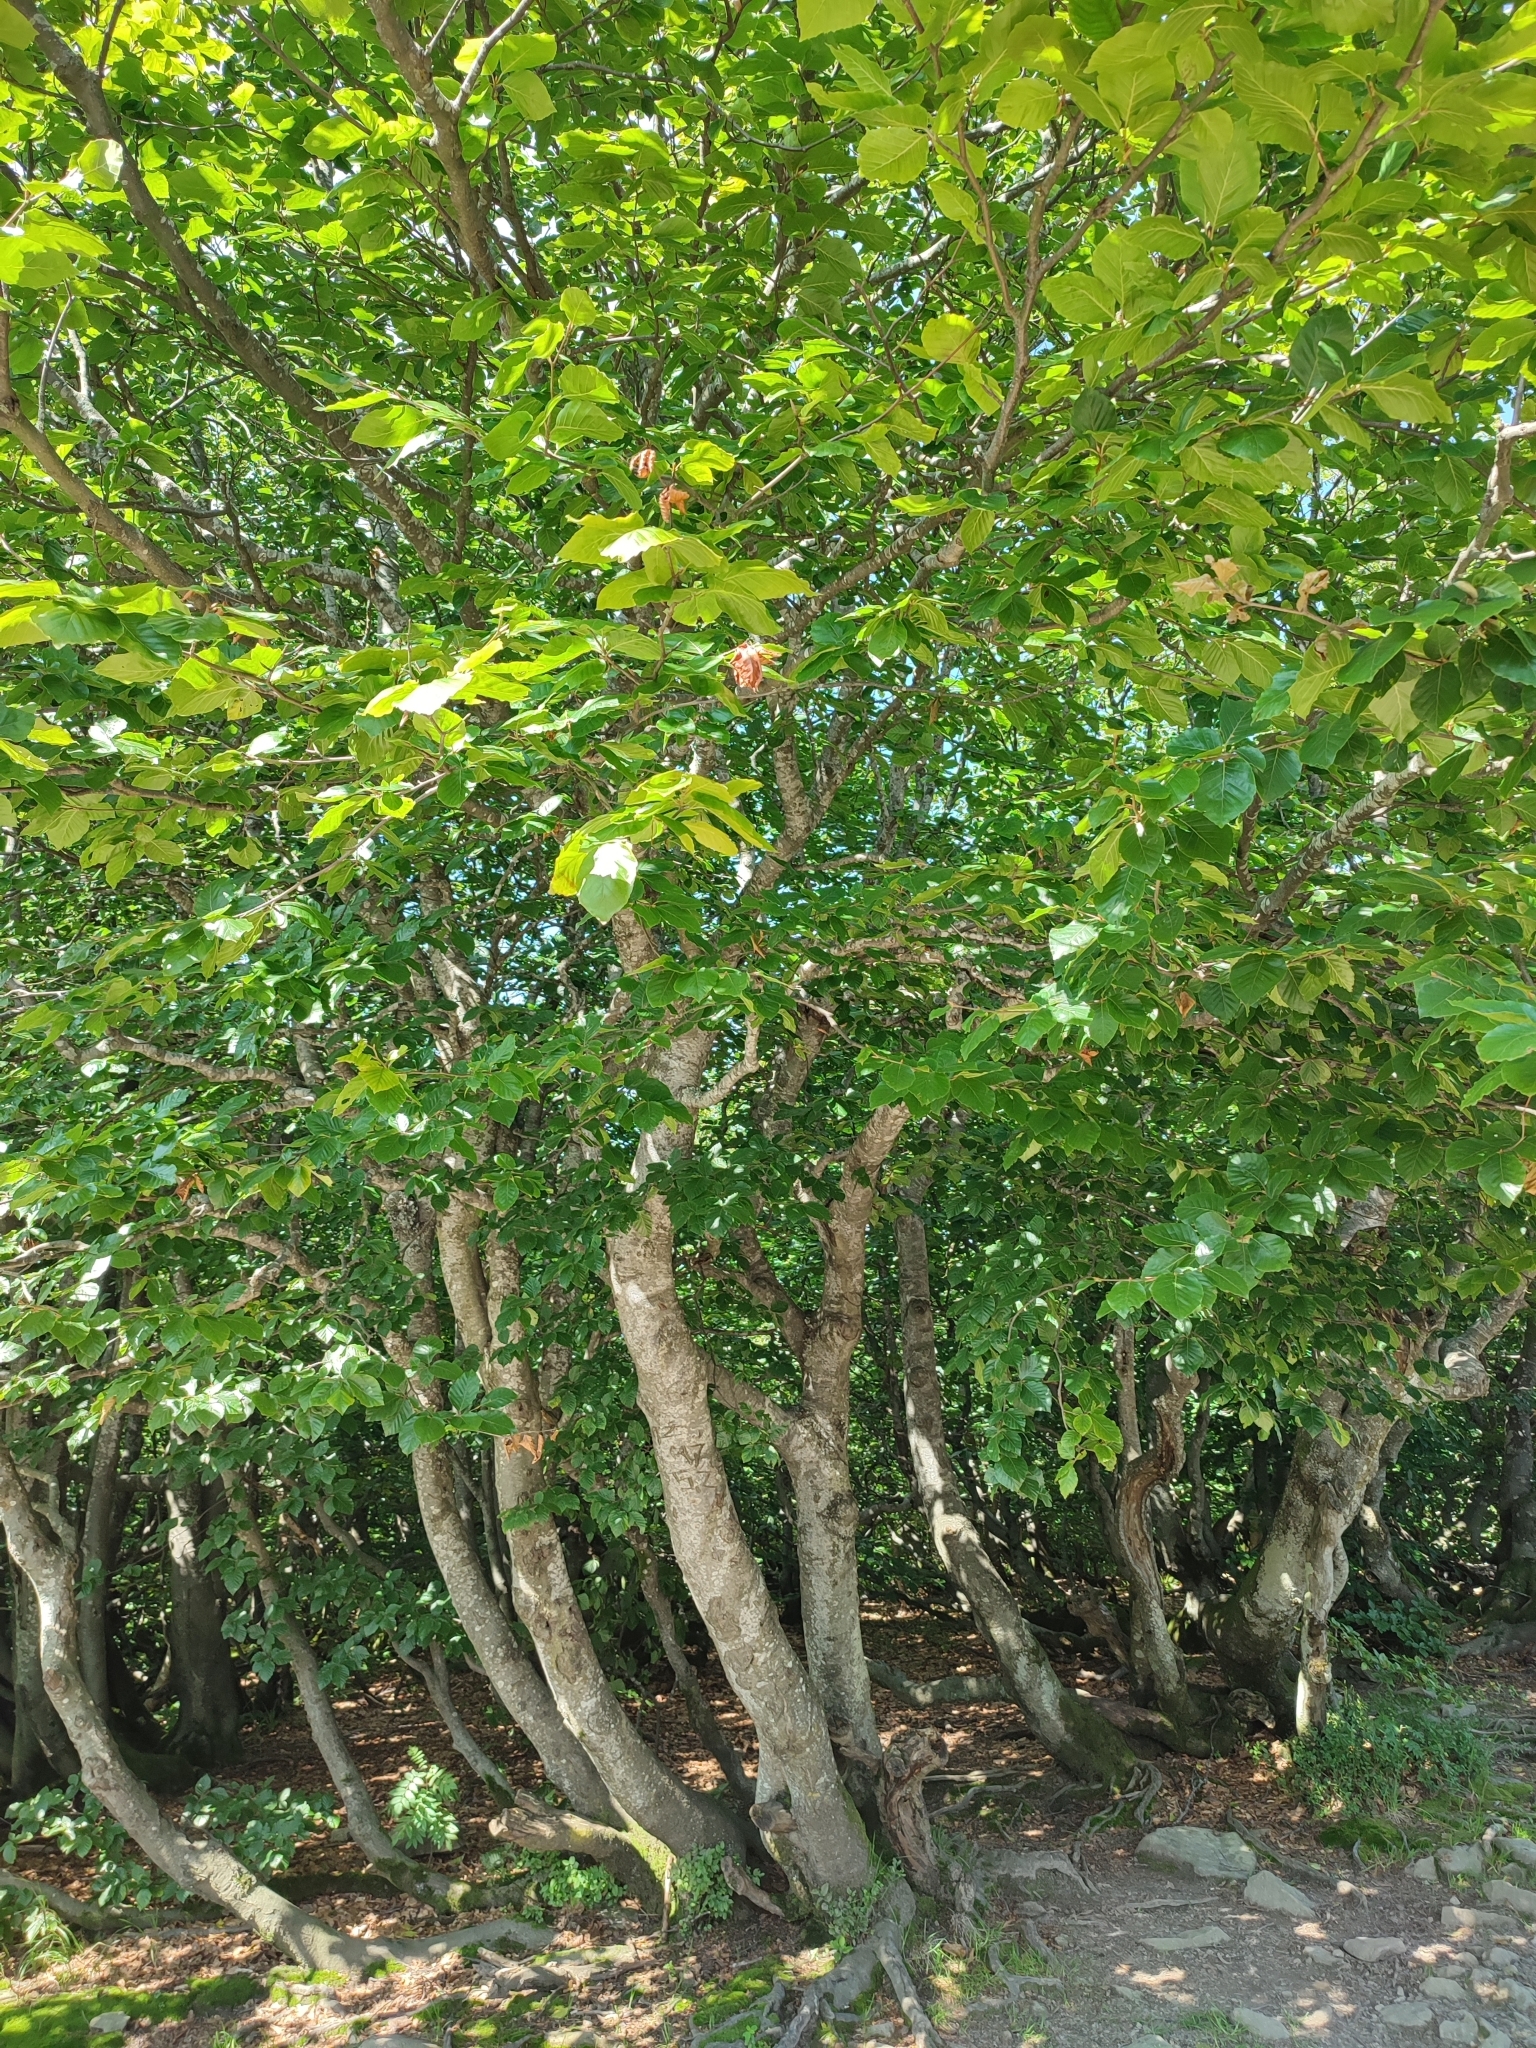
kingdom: Plantae
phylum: Tracheophyta
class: Magnoliopsida
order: Fagales
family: Fagaceae
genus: Fagus
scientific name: Fagus sylvatica
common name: Beech
